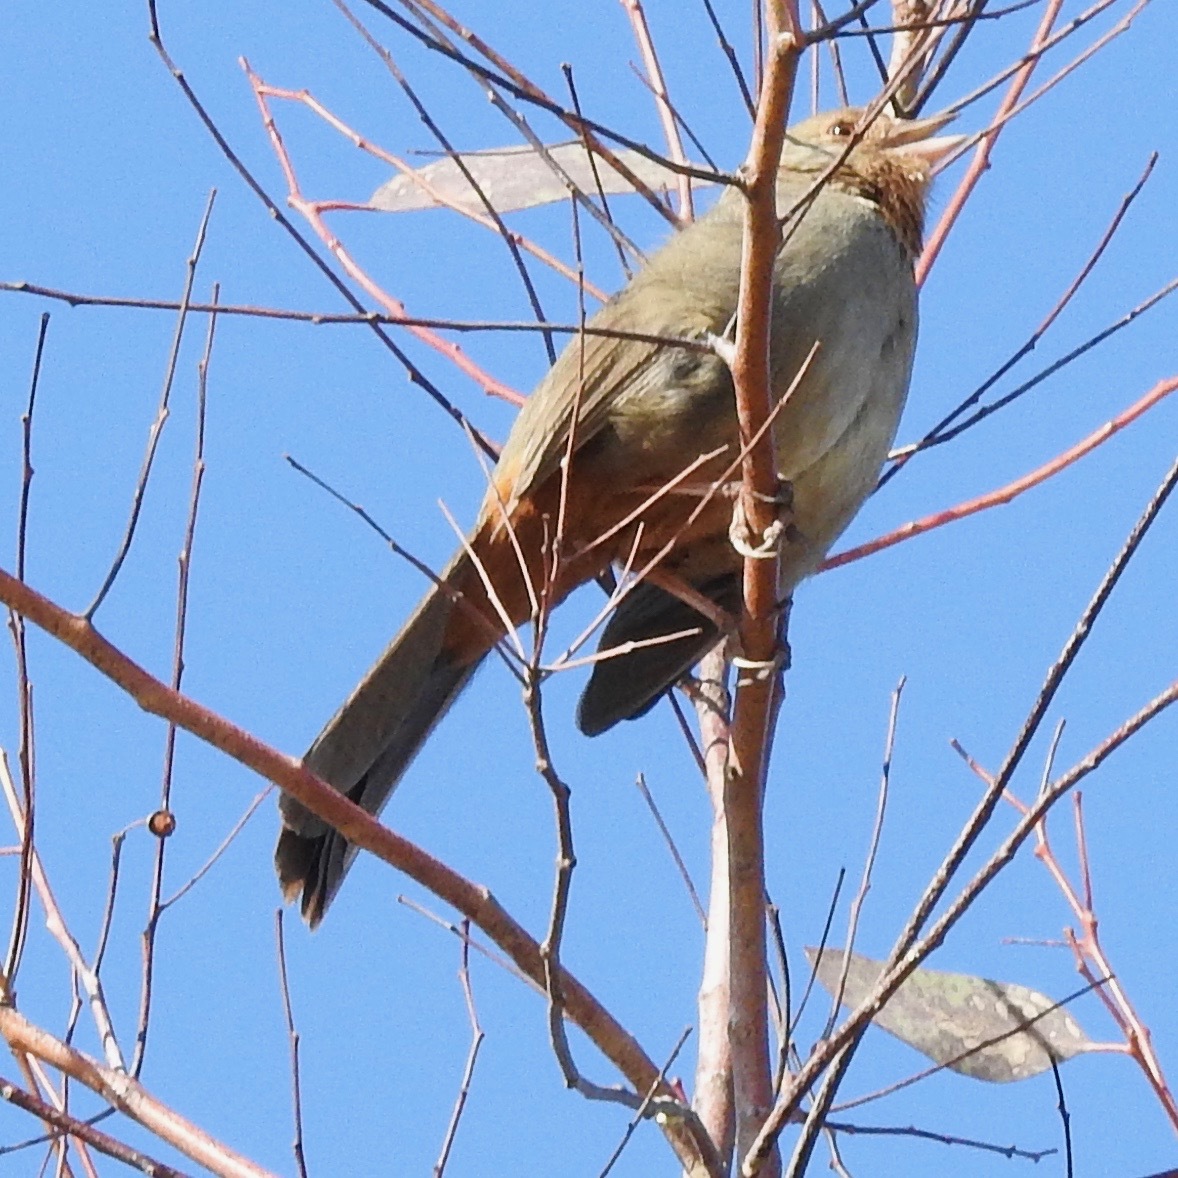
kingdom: Animalia
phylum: Chordata
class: Aves
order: Passeriformes
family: Passerellidae
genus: Melozone
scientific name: Melozone crissalis
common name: California towhee
